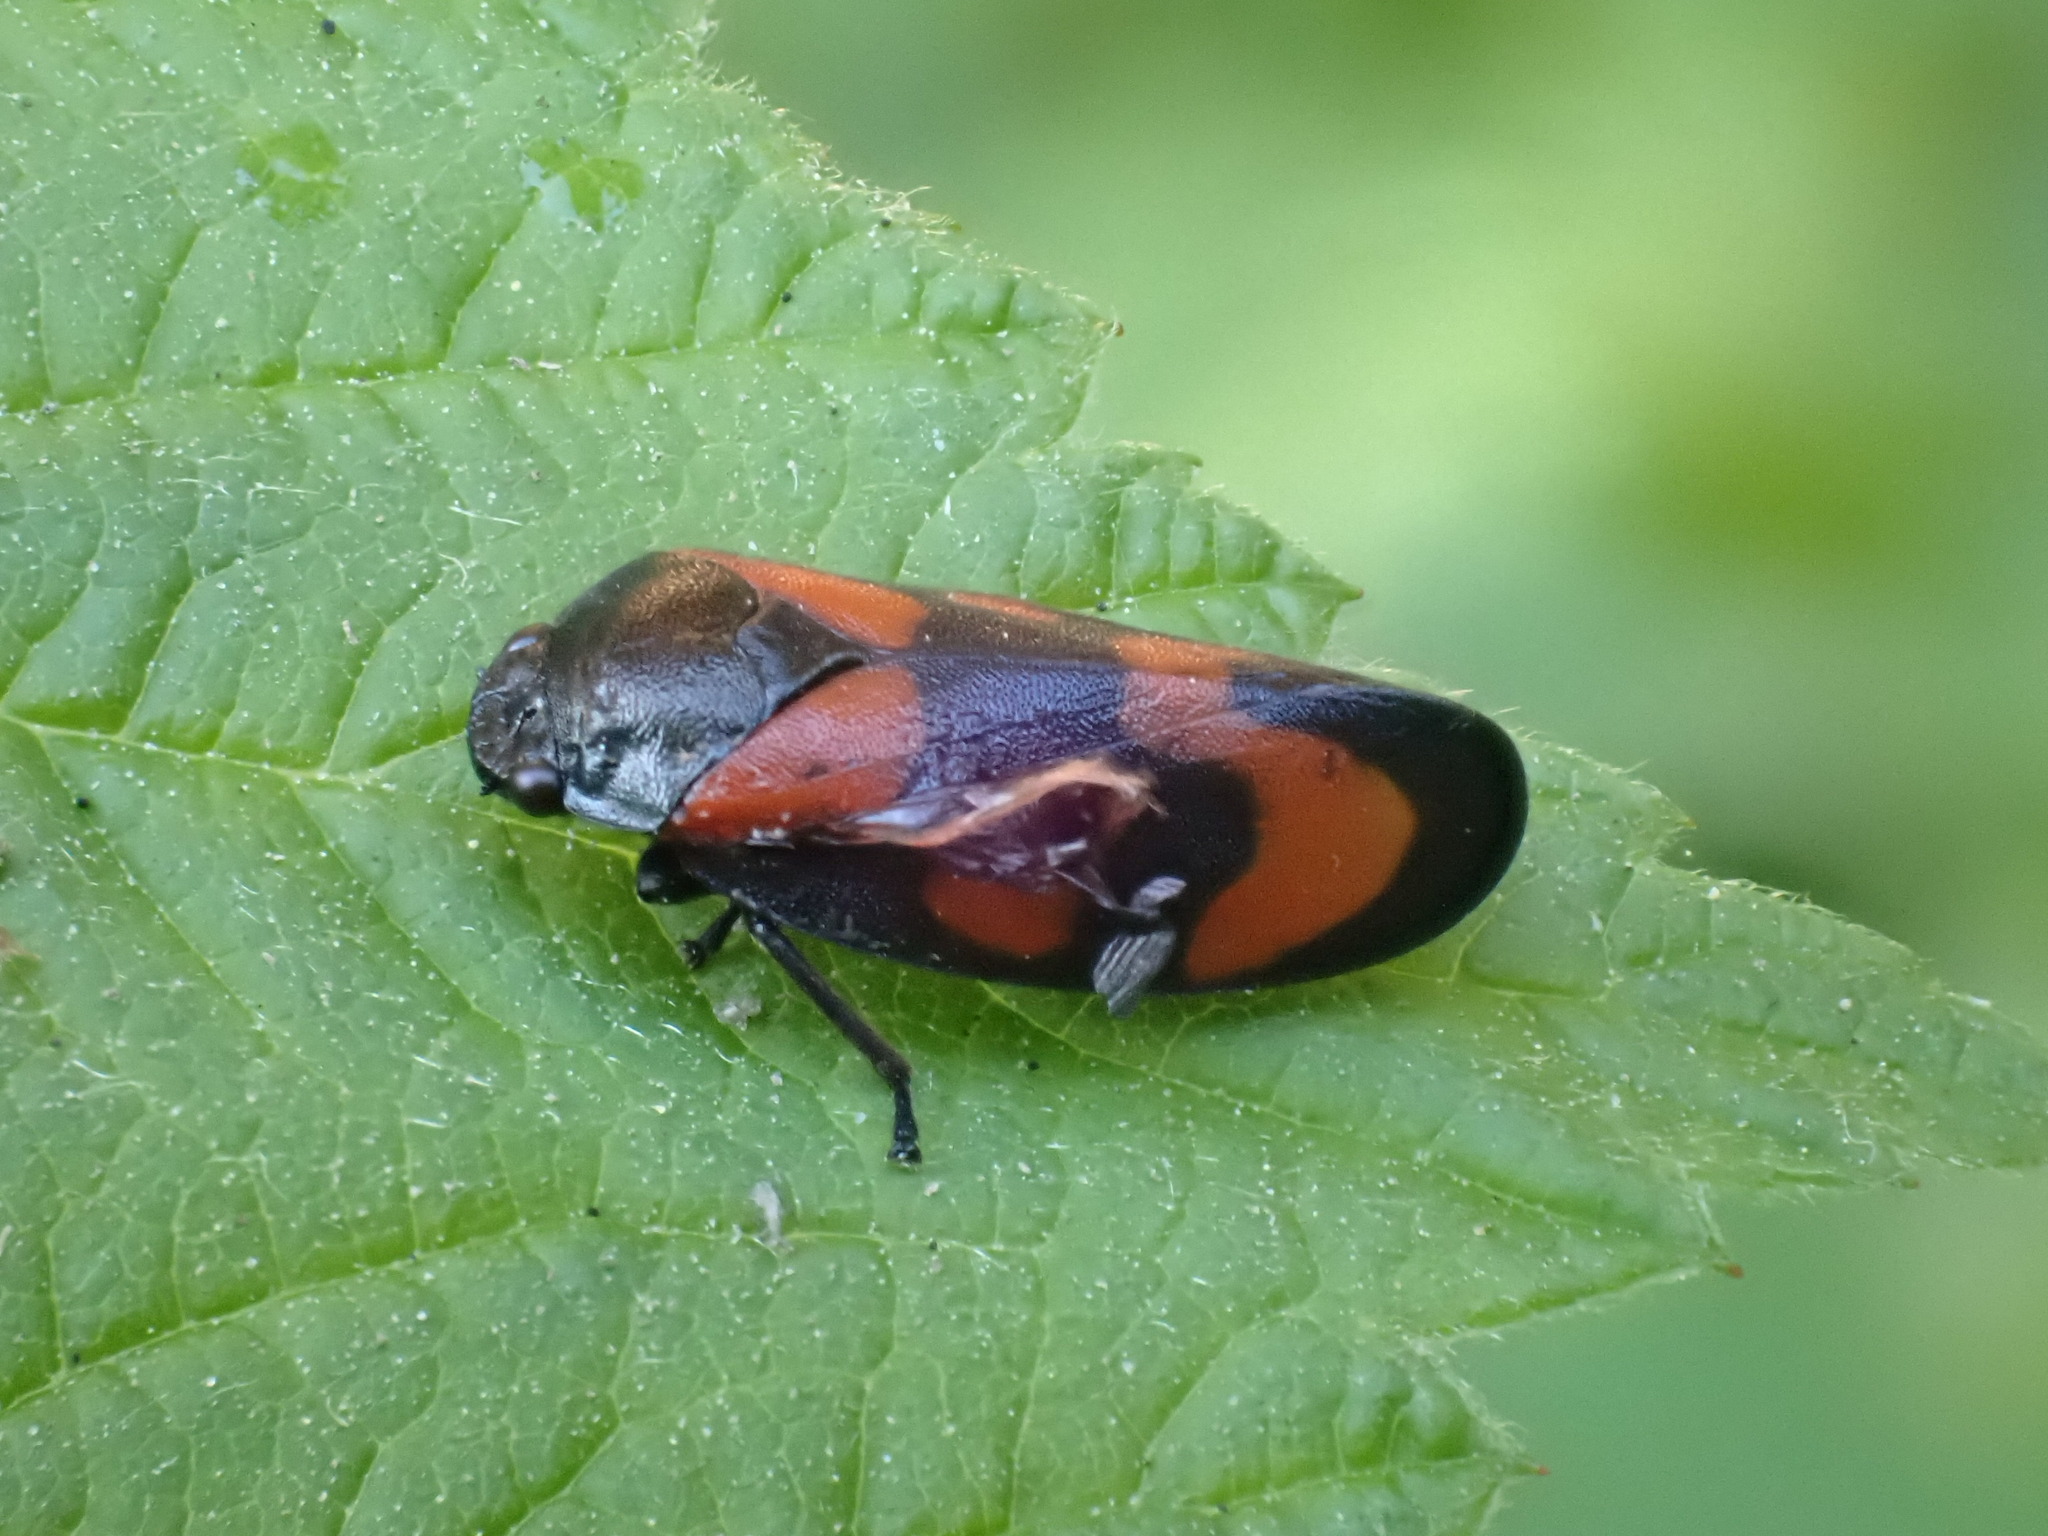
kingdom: Animalia
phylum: Arthropoda
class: Insecta
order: Hemiptera
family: Cercopidae
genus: Cercopis
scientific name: Cercopis vulnerata
